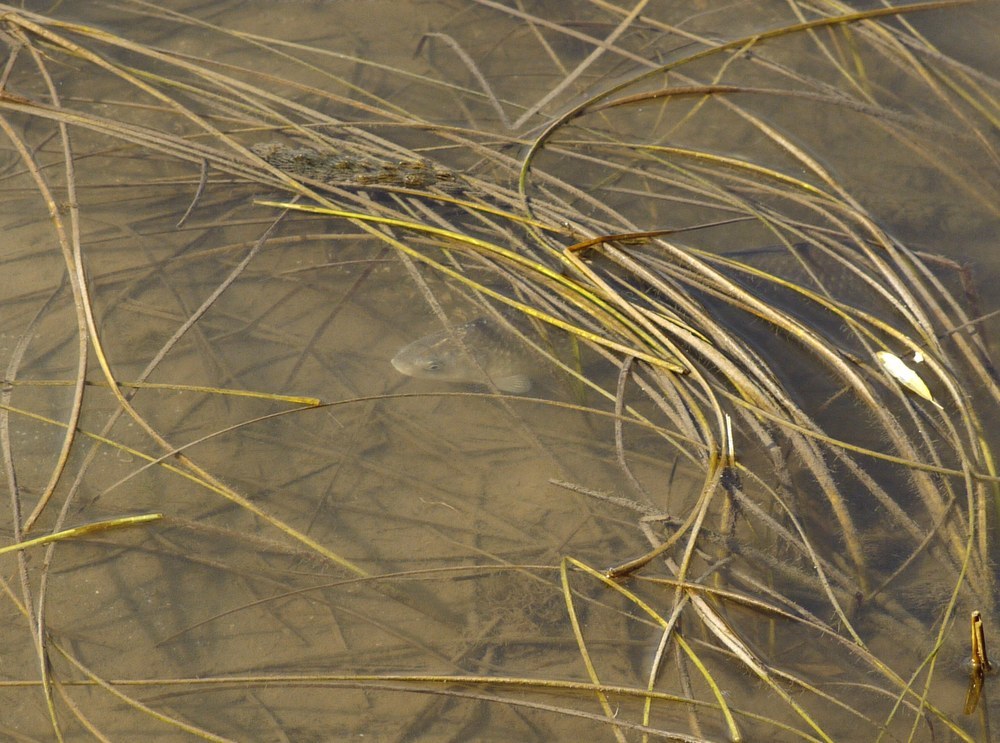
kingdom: Animalia
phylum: Chordata
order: Cypriniformes
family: Cyprinidae
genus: Carassius
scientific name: Carassius gibelio
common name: Prussian carp
